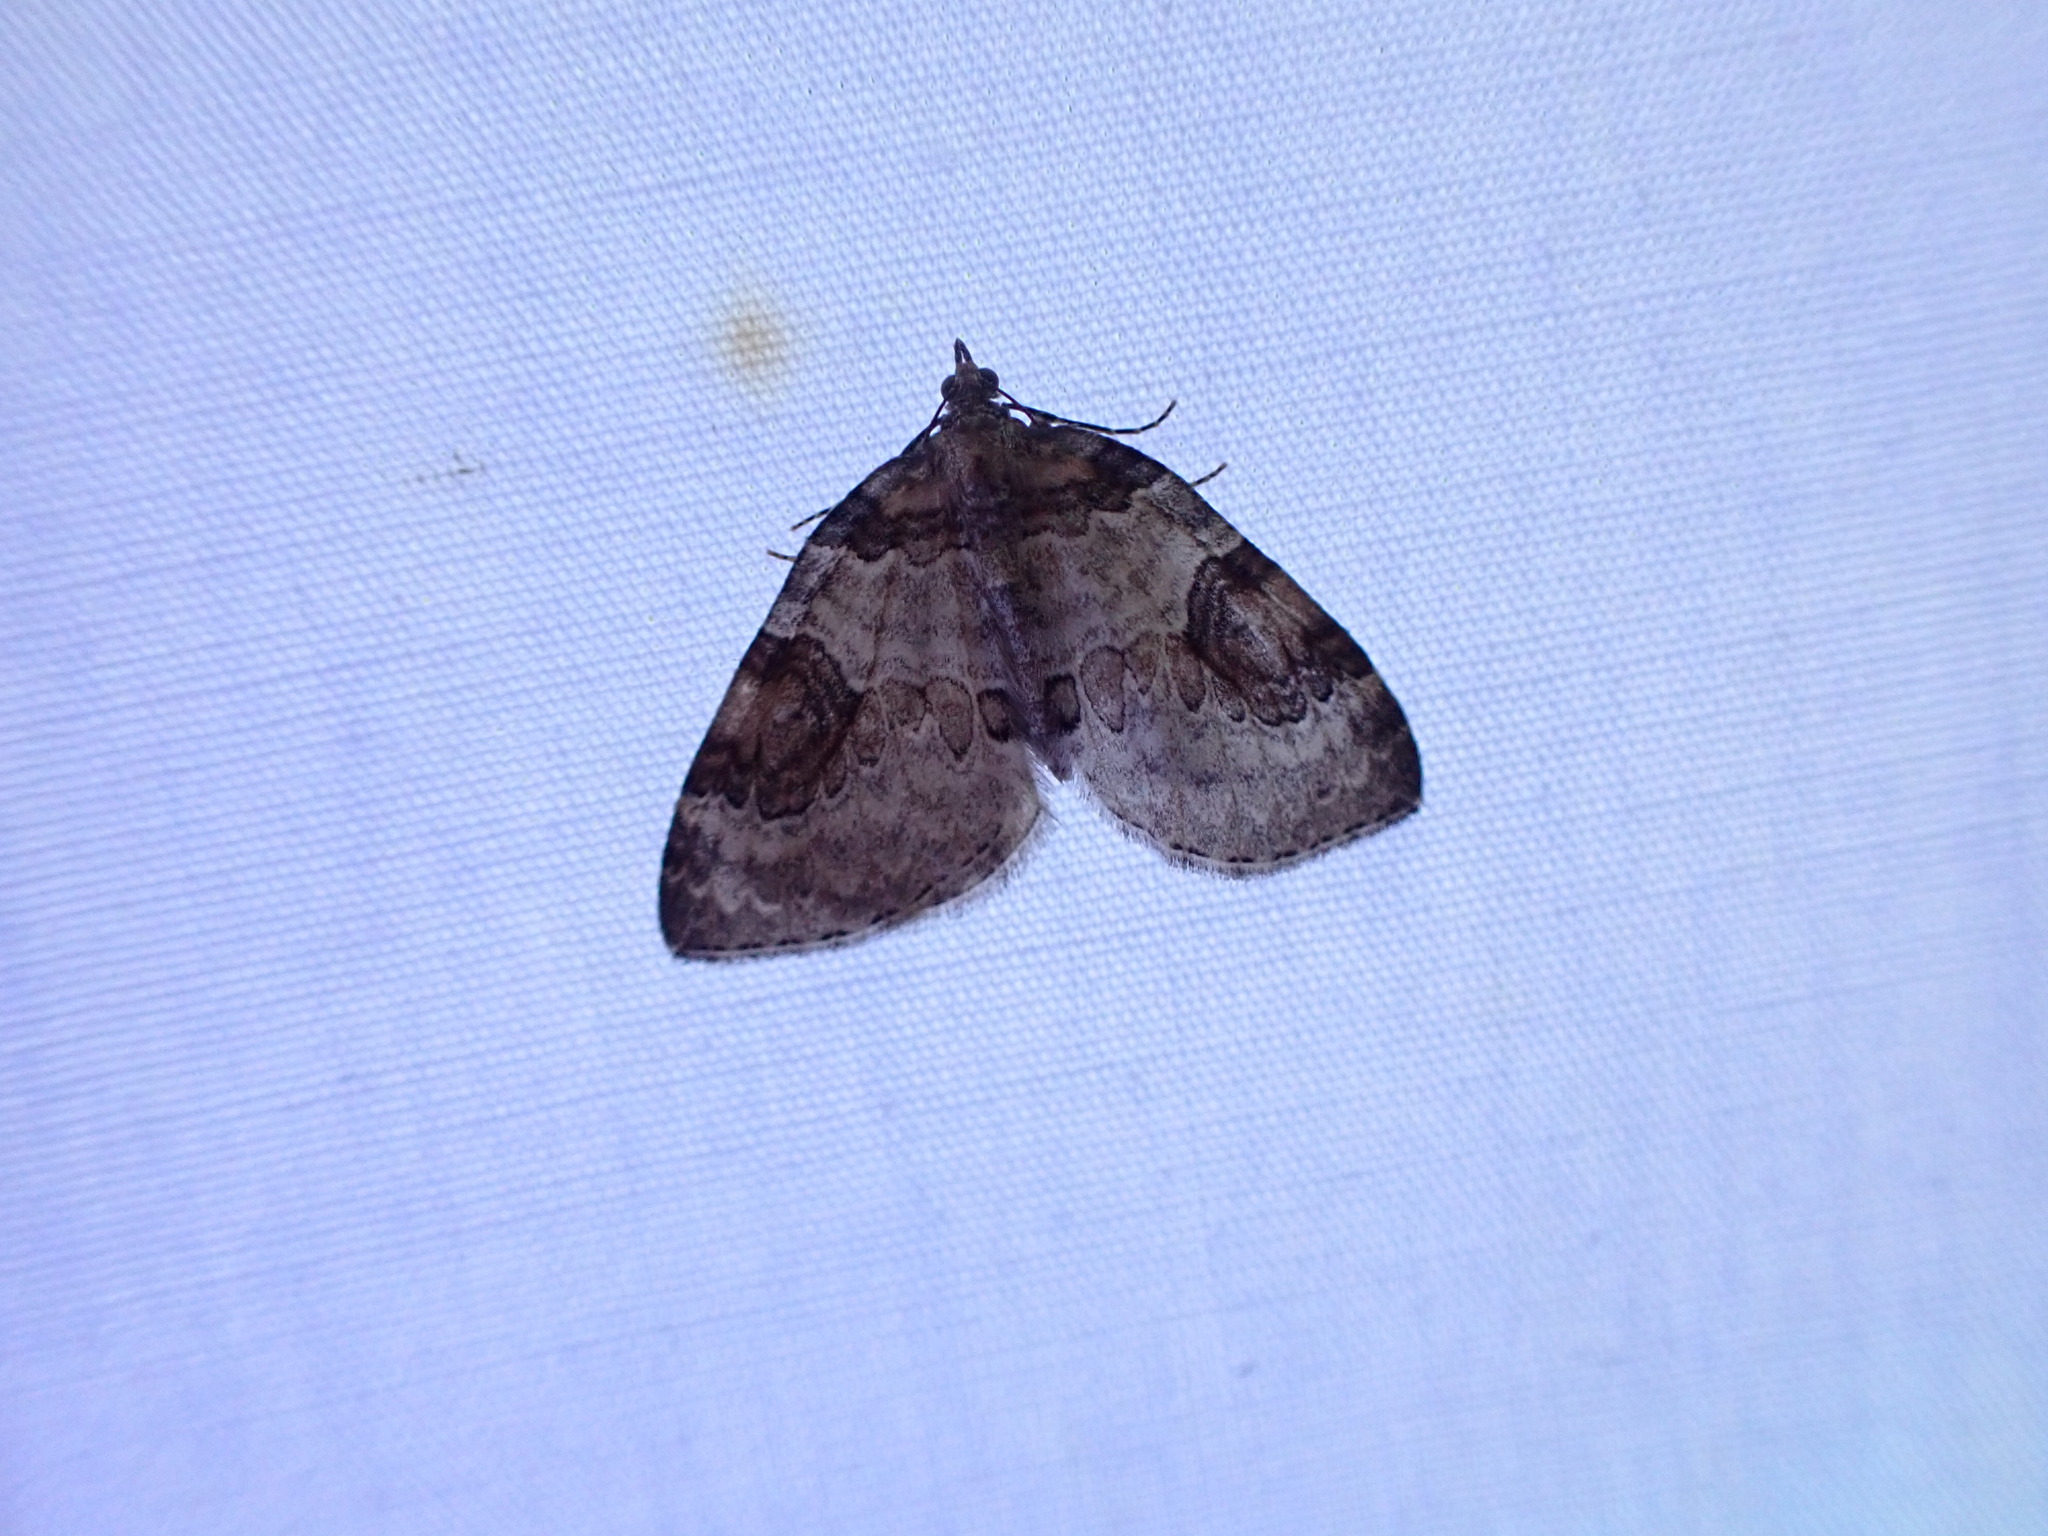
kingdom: Animalia
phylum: Arthropoda
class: Insecta
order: Lepidoptera
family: Geometridae
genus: Plemyria
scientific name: Plemyria georgii
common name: George's carpet moth
